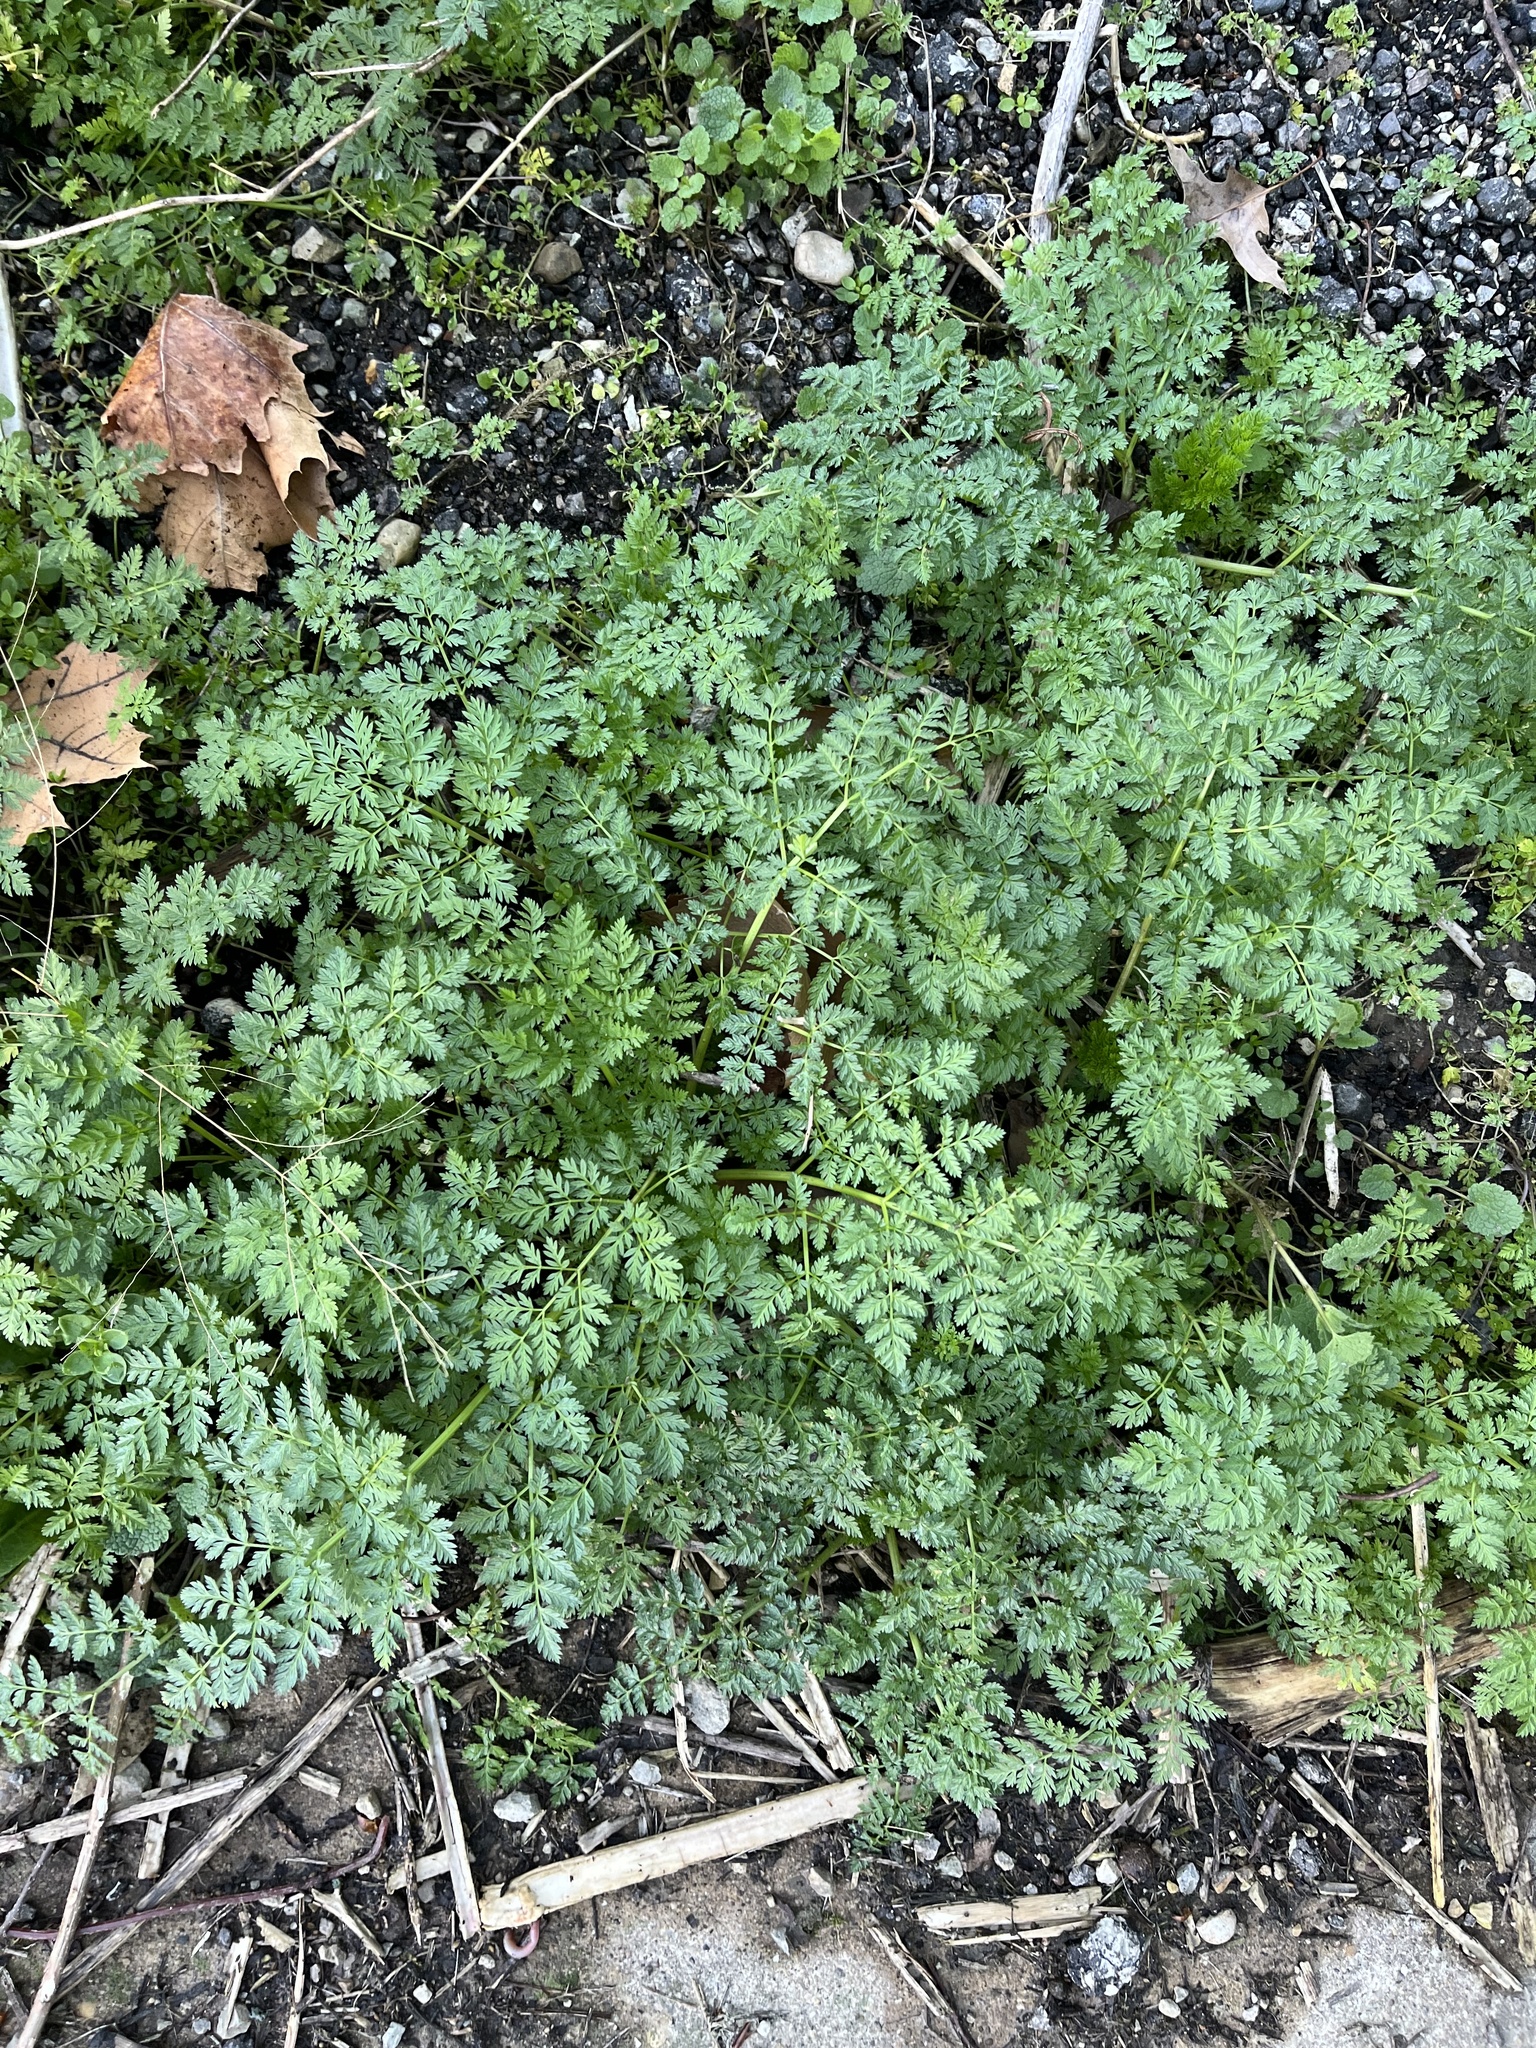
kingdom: Plantae
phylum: Tracheophyta
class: Magnoliopsida
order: Apiales
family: Apiaceae
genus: Conium
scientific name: Conium maculatum
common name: Hemlock
